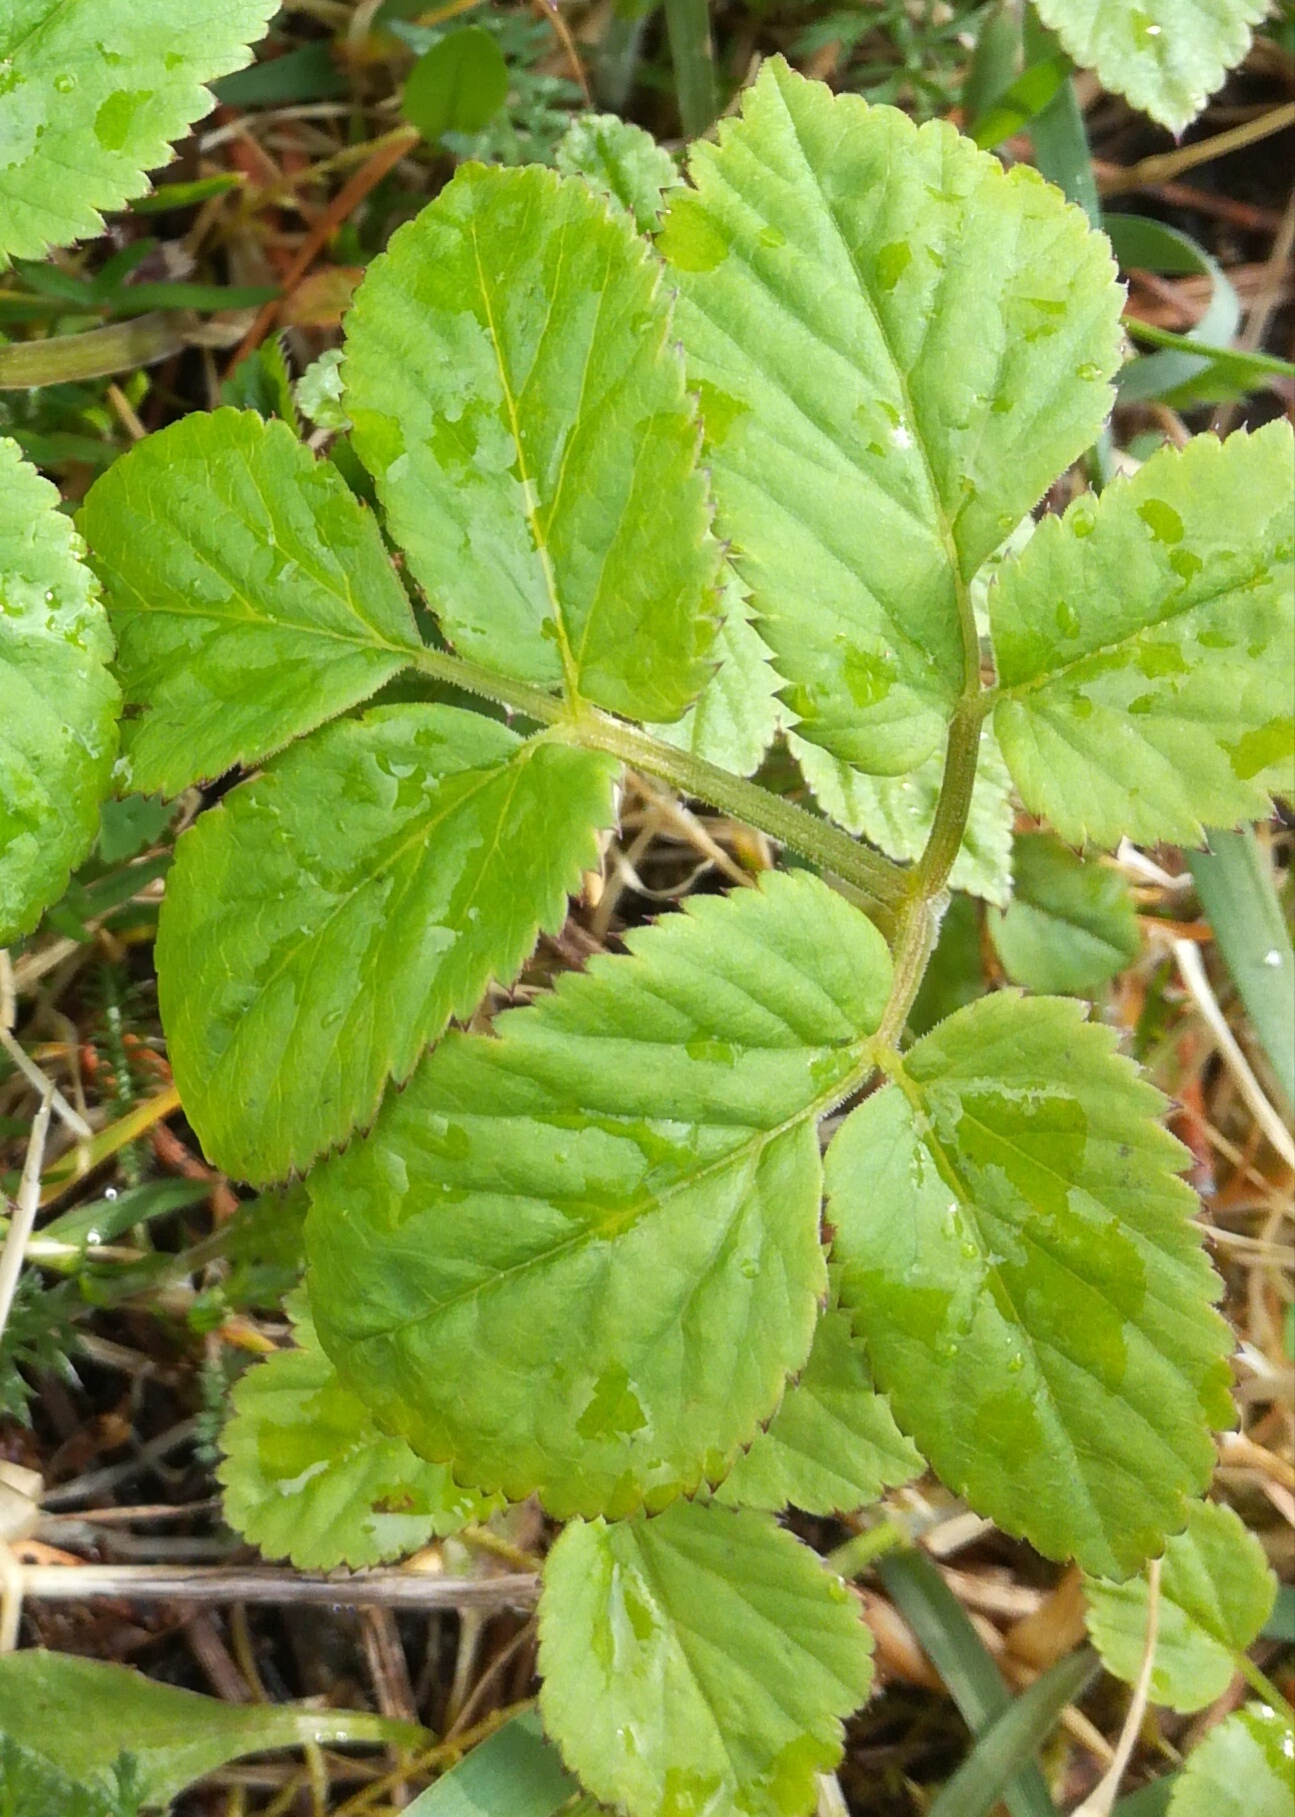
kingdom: Plantae
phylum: Tracheophyta
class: Magnoliopsida
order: Apiales
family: Apiaceae
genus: Aegopodium
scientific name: Aegopodium podagraria
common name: Ground-elder
